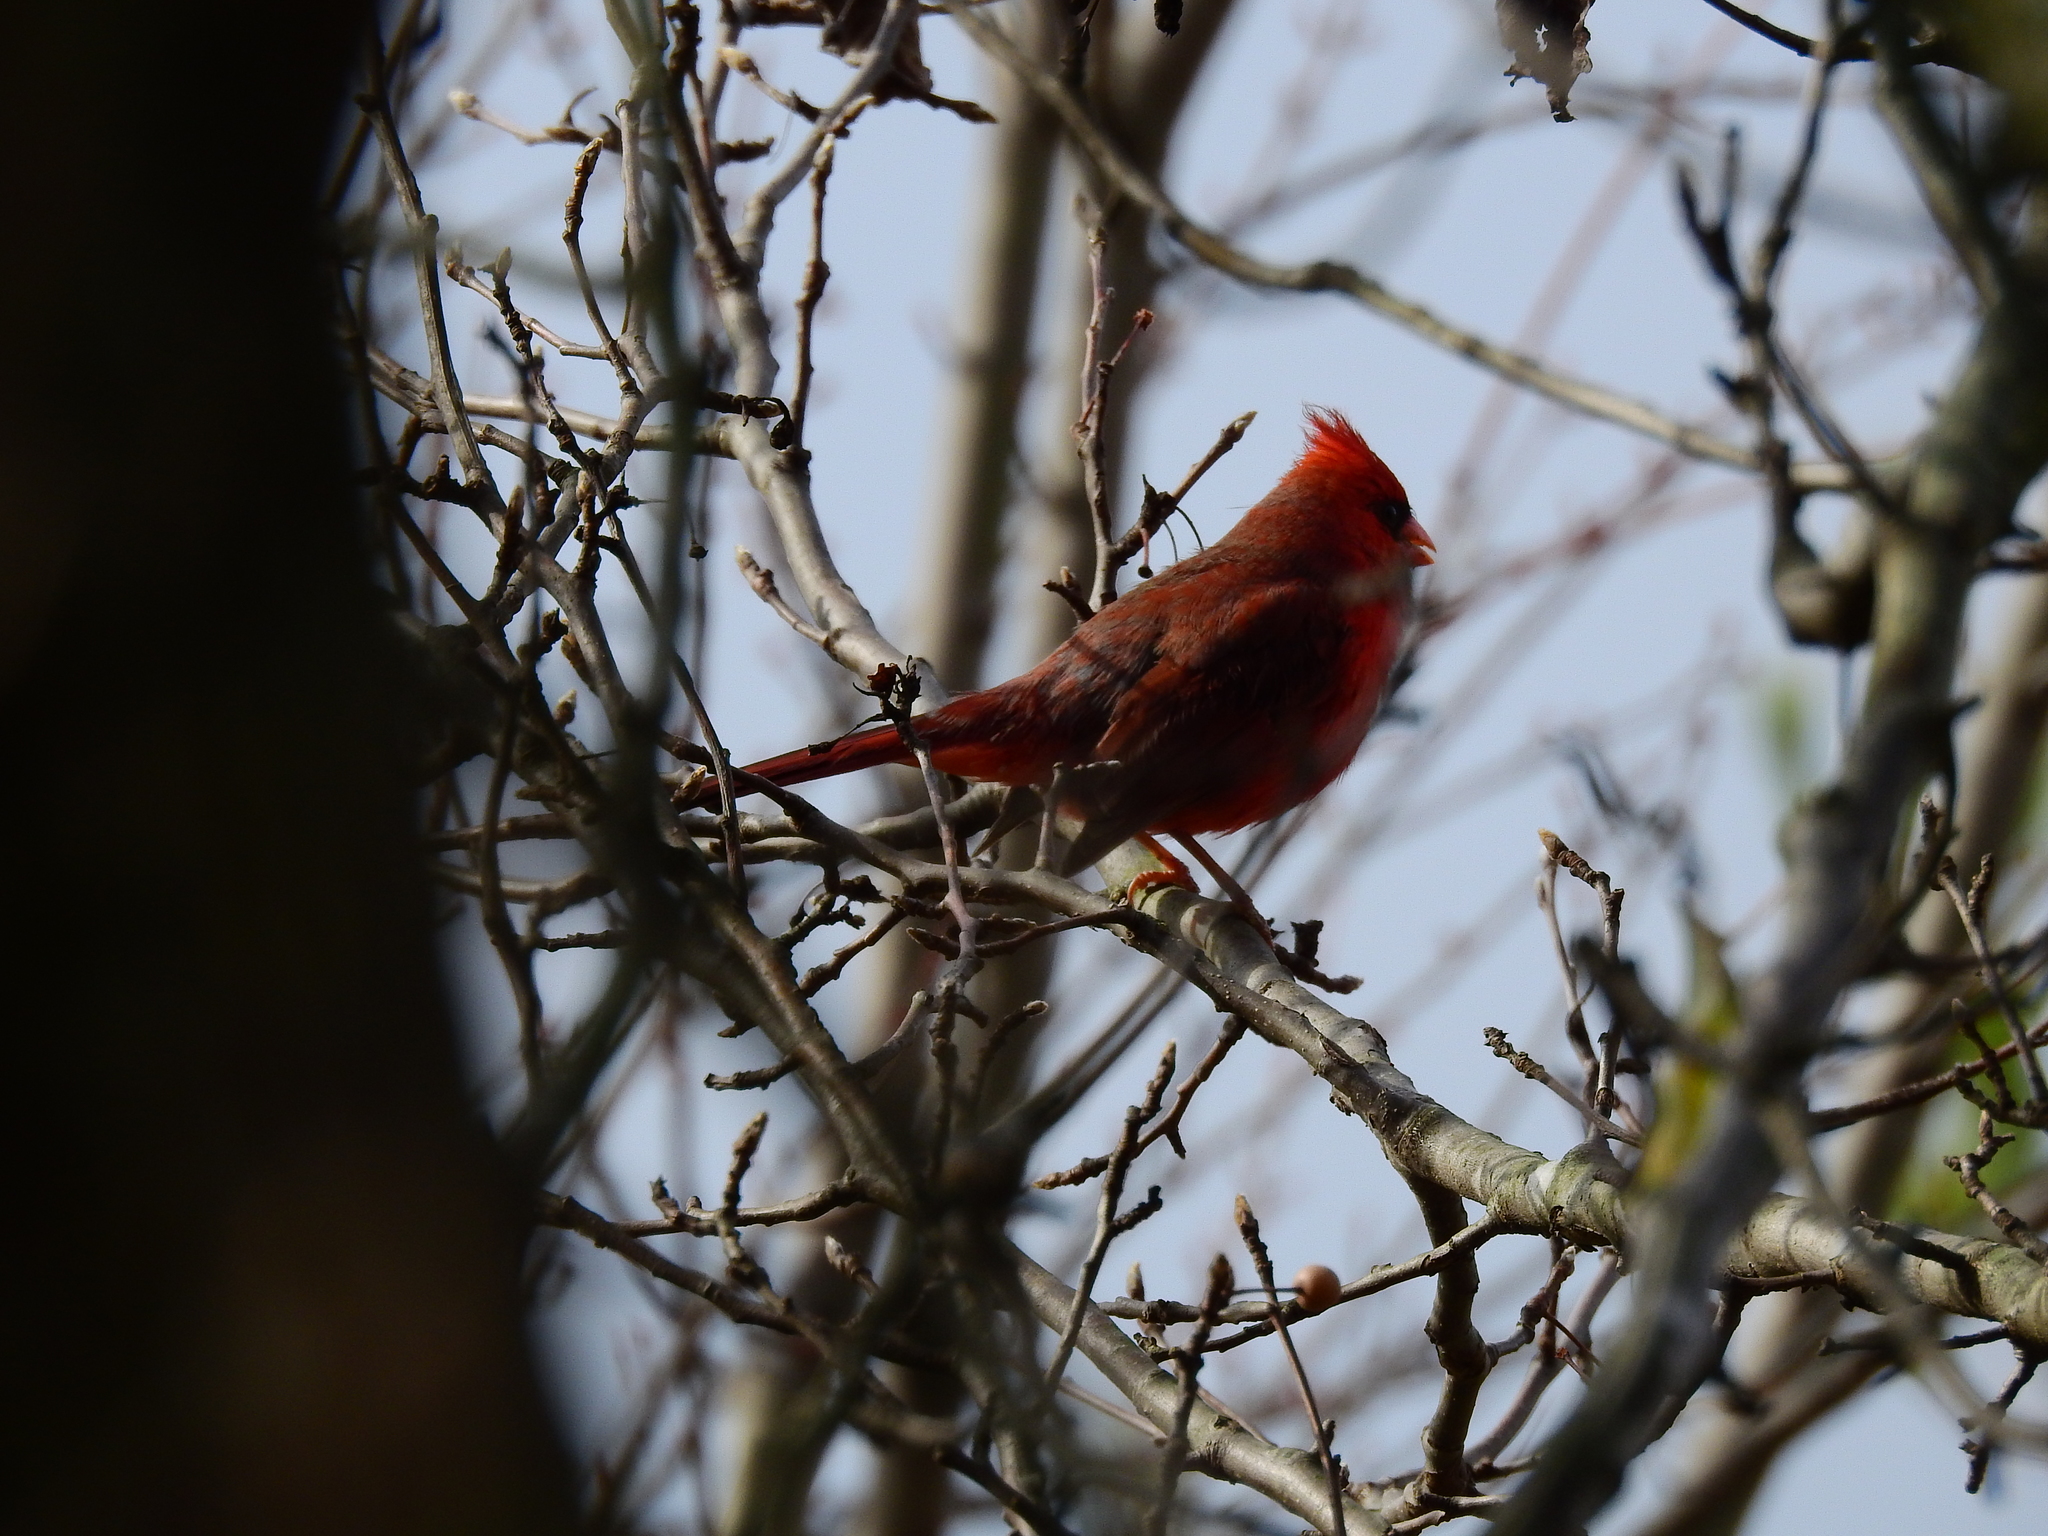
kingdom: Animalia
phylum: Chordata
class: Aves
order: Passeriformes
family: Cardinalidae
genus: Cardinalis
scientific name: Cardinalis cardinalis
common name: Northern cardinal
